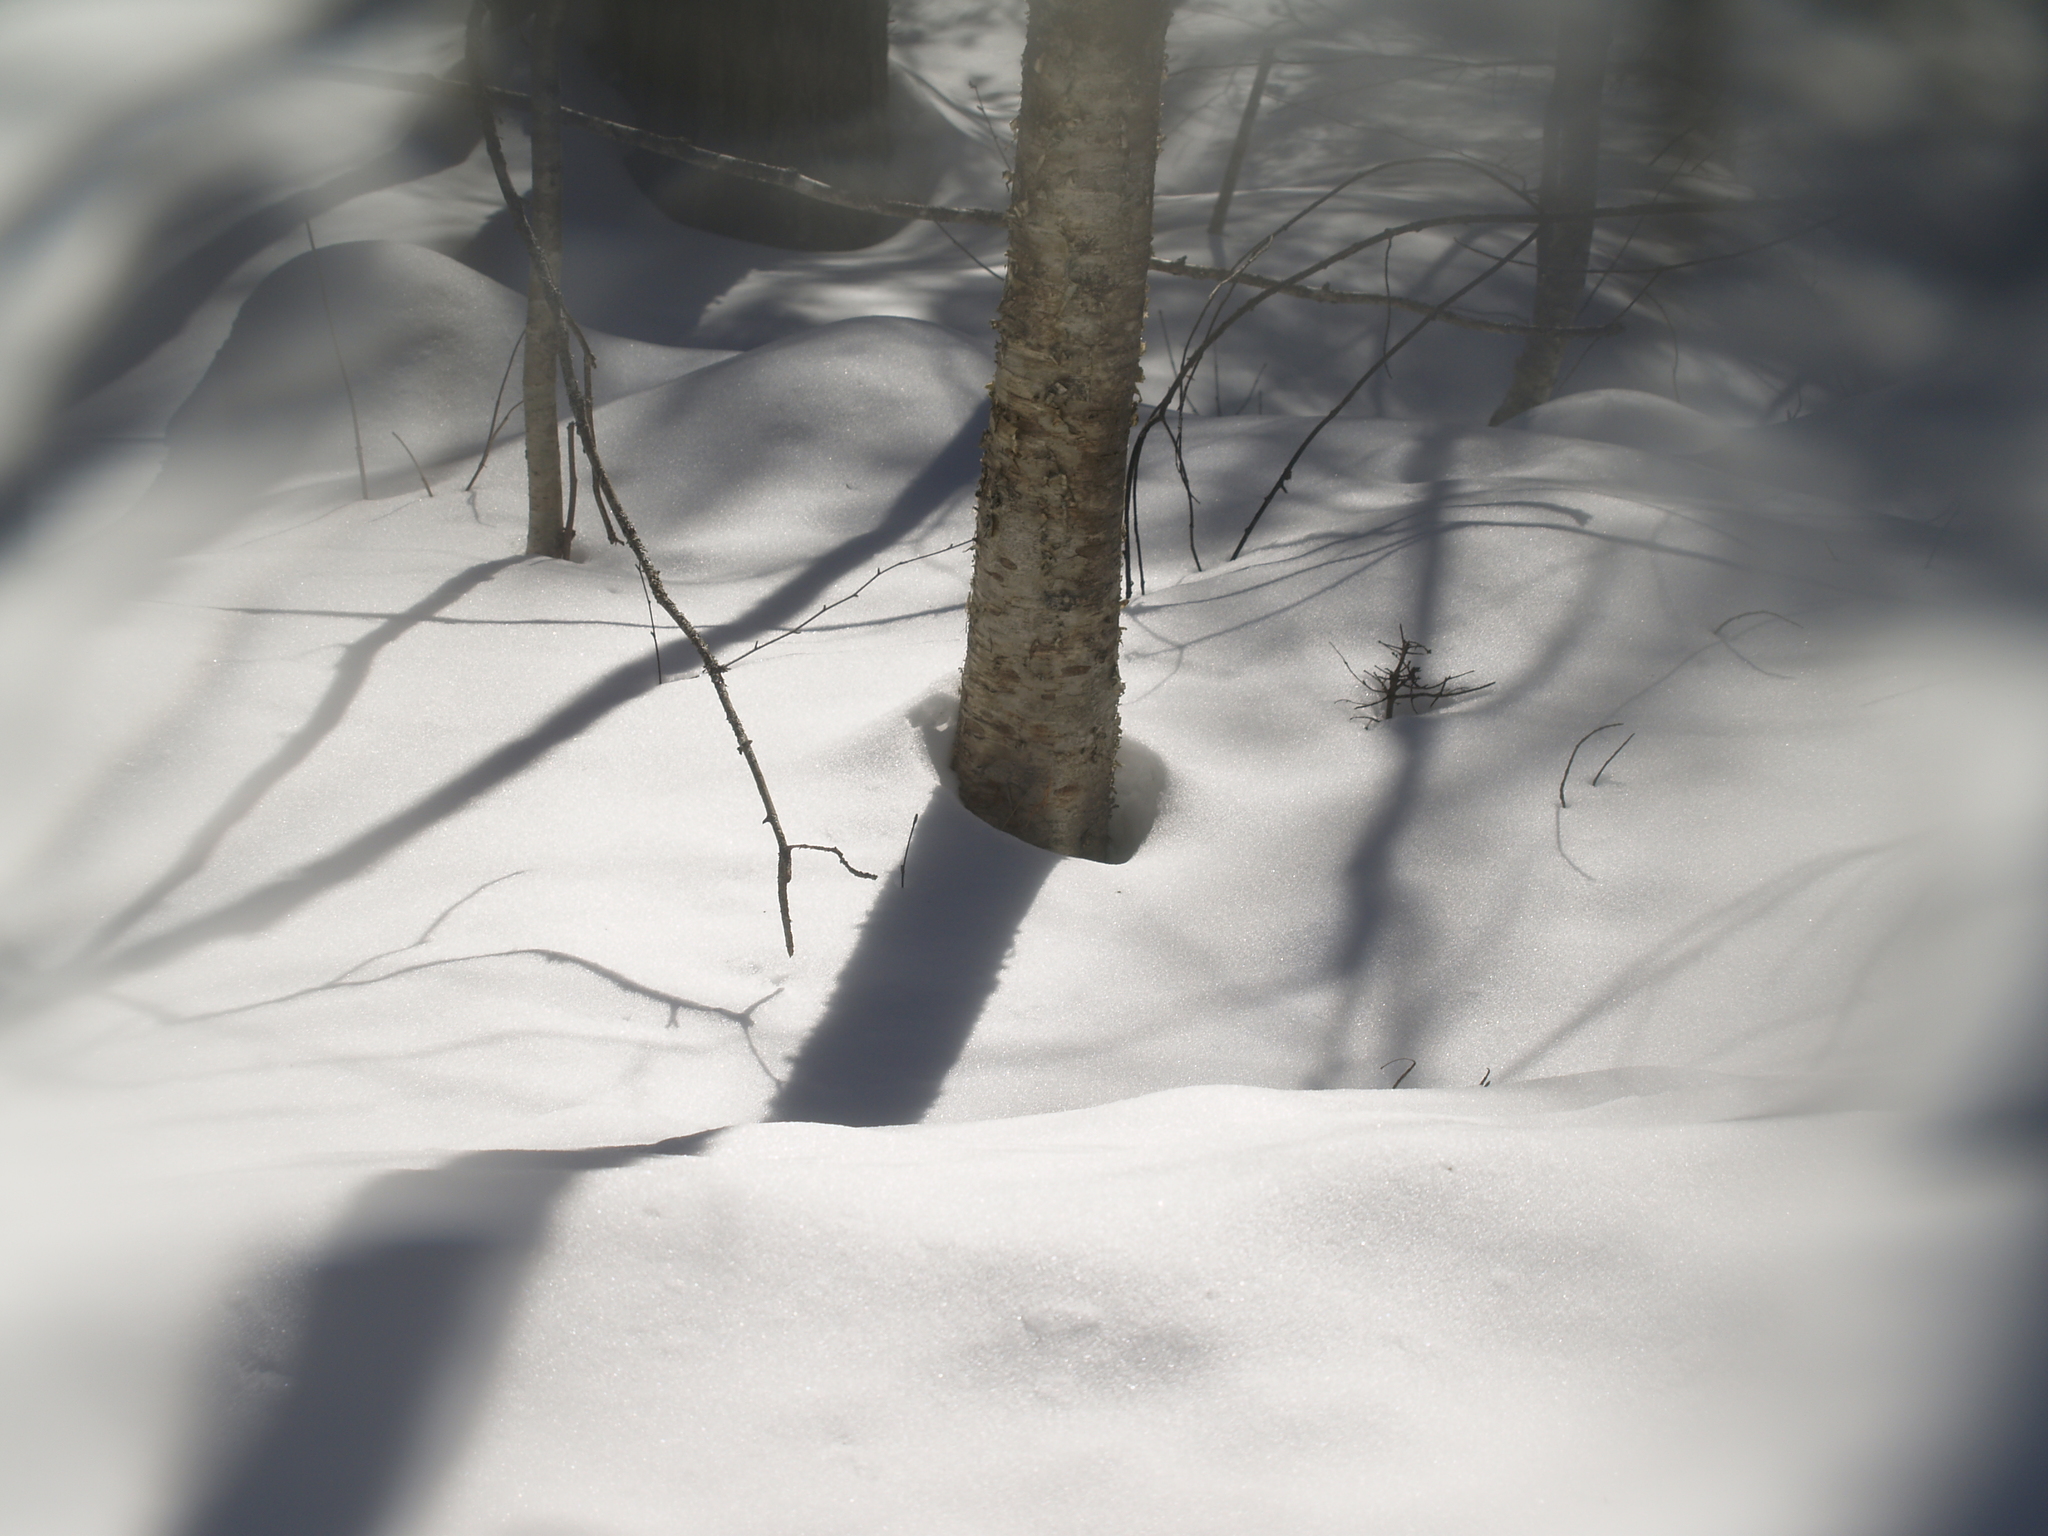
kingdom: Plantae
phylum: Tracheophyta
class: Magnoliopsida
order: Fagales
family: Betulaceae
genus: Betula
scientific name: Betula alleghaniensis
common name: Yellow birch
